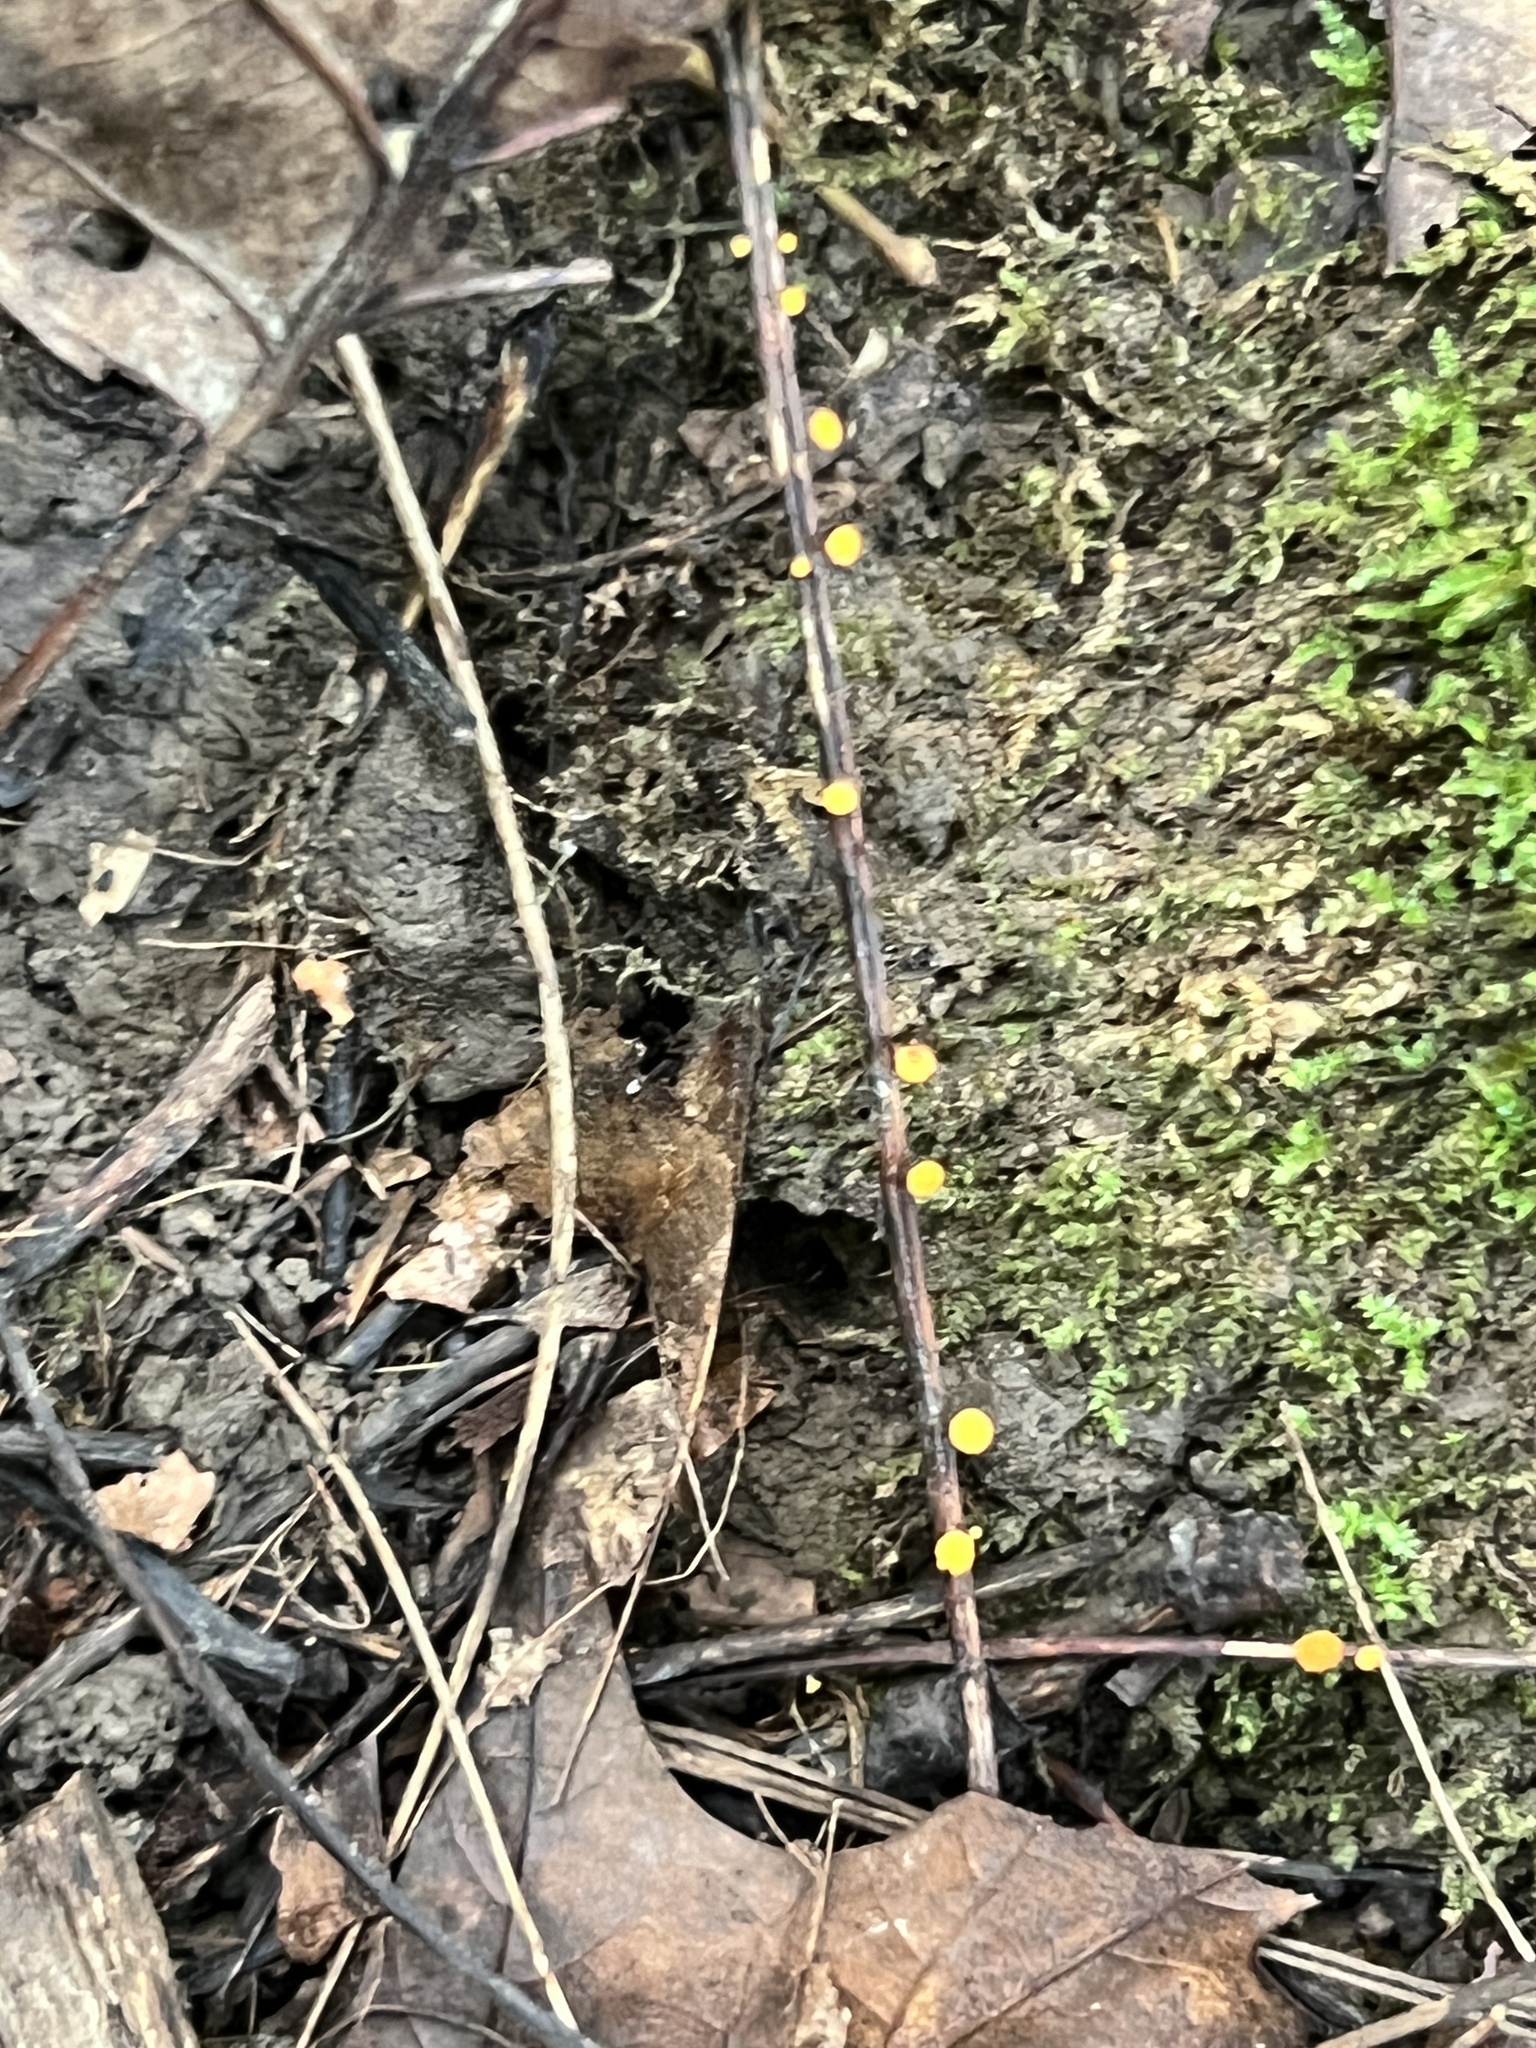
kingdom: Fungi
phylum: Ascomycota
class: Leotiomycetes
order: Helotiales
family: Helotiaceae
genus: Hymenoscyphus
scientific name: Hymenoscyphus epiphyllus
